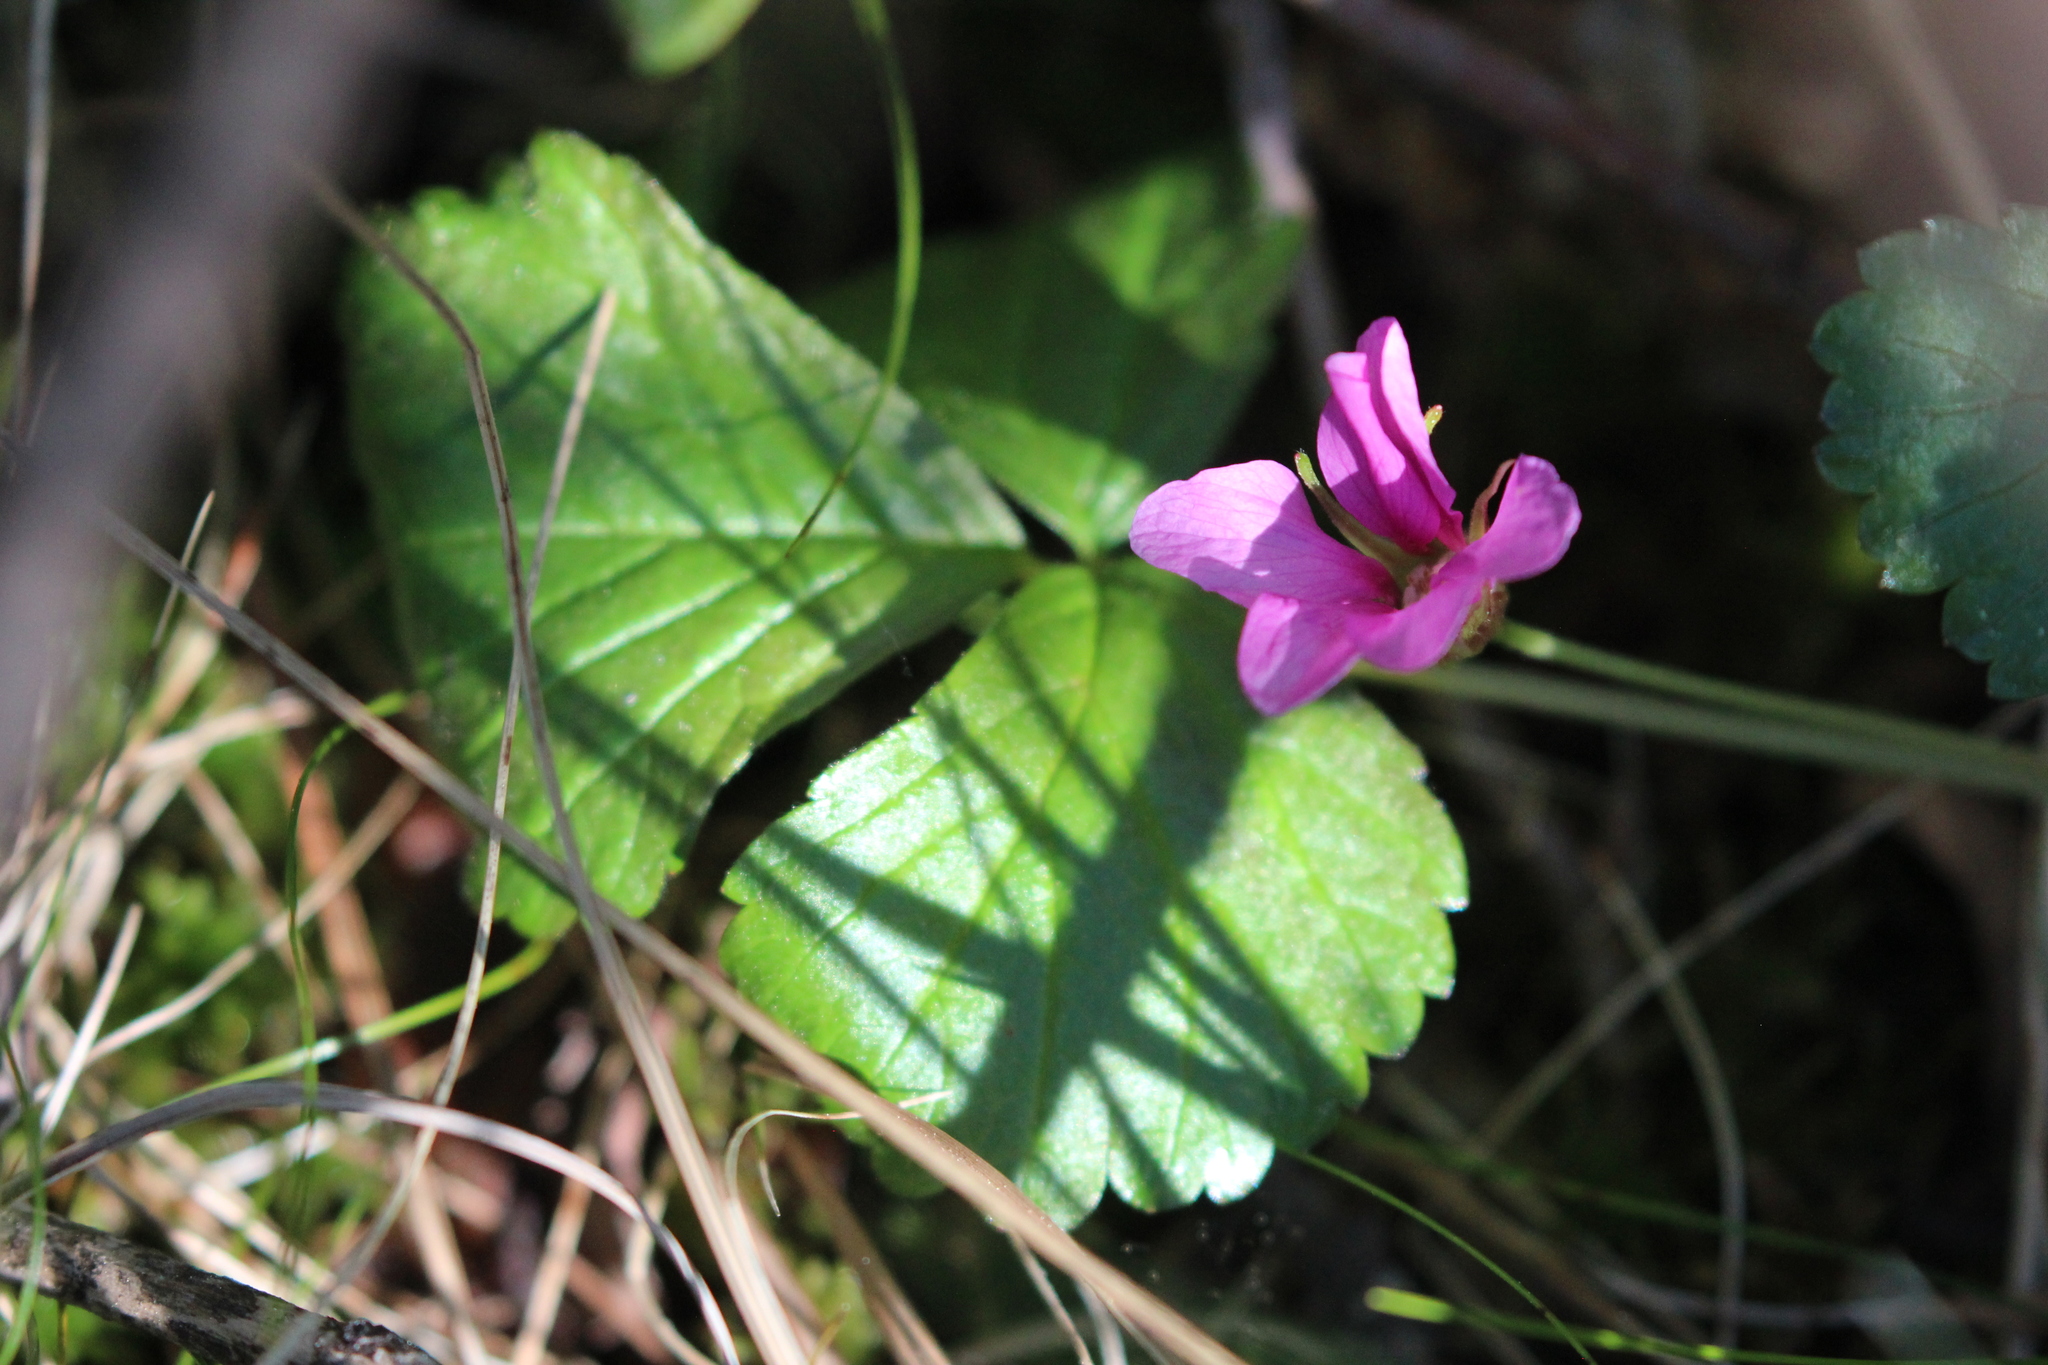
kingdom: Plantae
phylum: Tracheophyta
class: Magnoliopsida
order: Rosales
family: Rosaceae
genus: Rubus
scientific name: Rubus arcticus
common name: Arctic bramble
